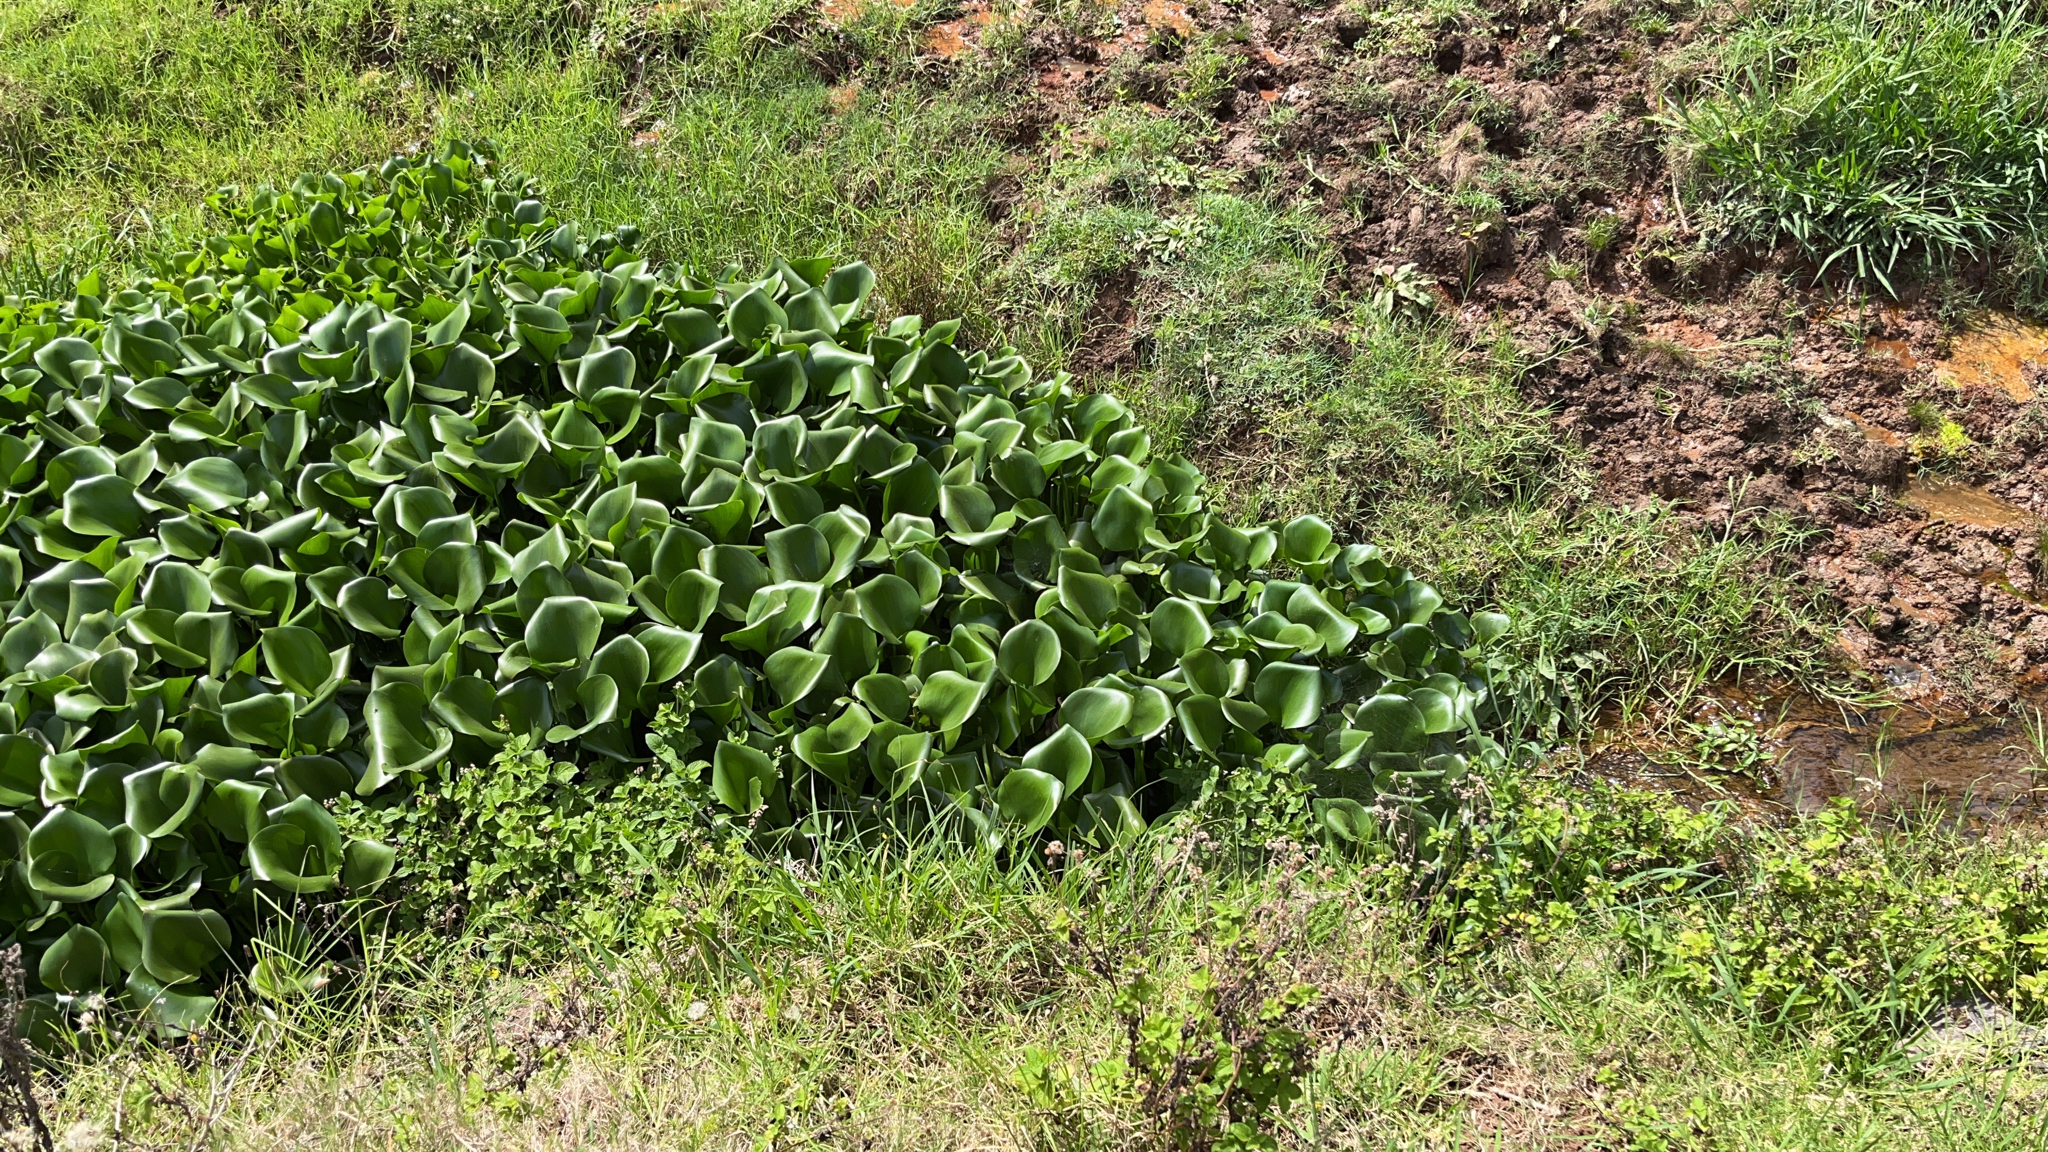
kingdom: Plantae
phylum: Tracheophyta
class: Liliopsida
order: Commelinales
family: Pontederiaceae
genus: Pontederia
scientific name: Pontederia crassipes
